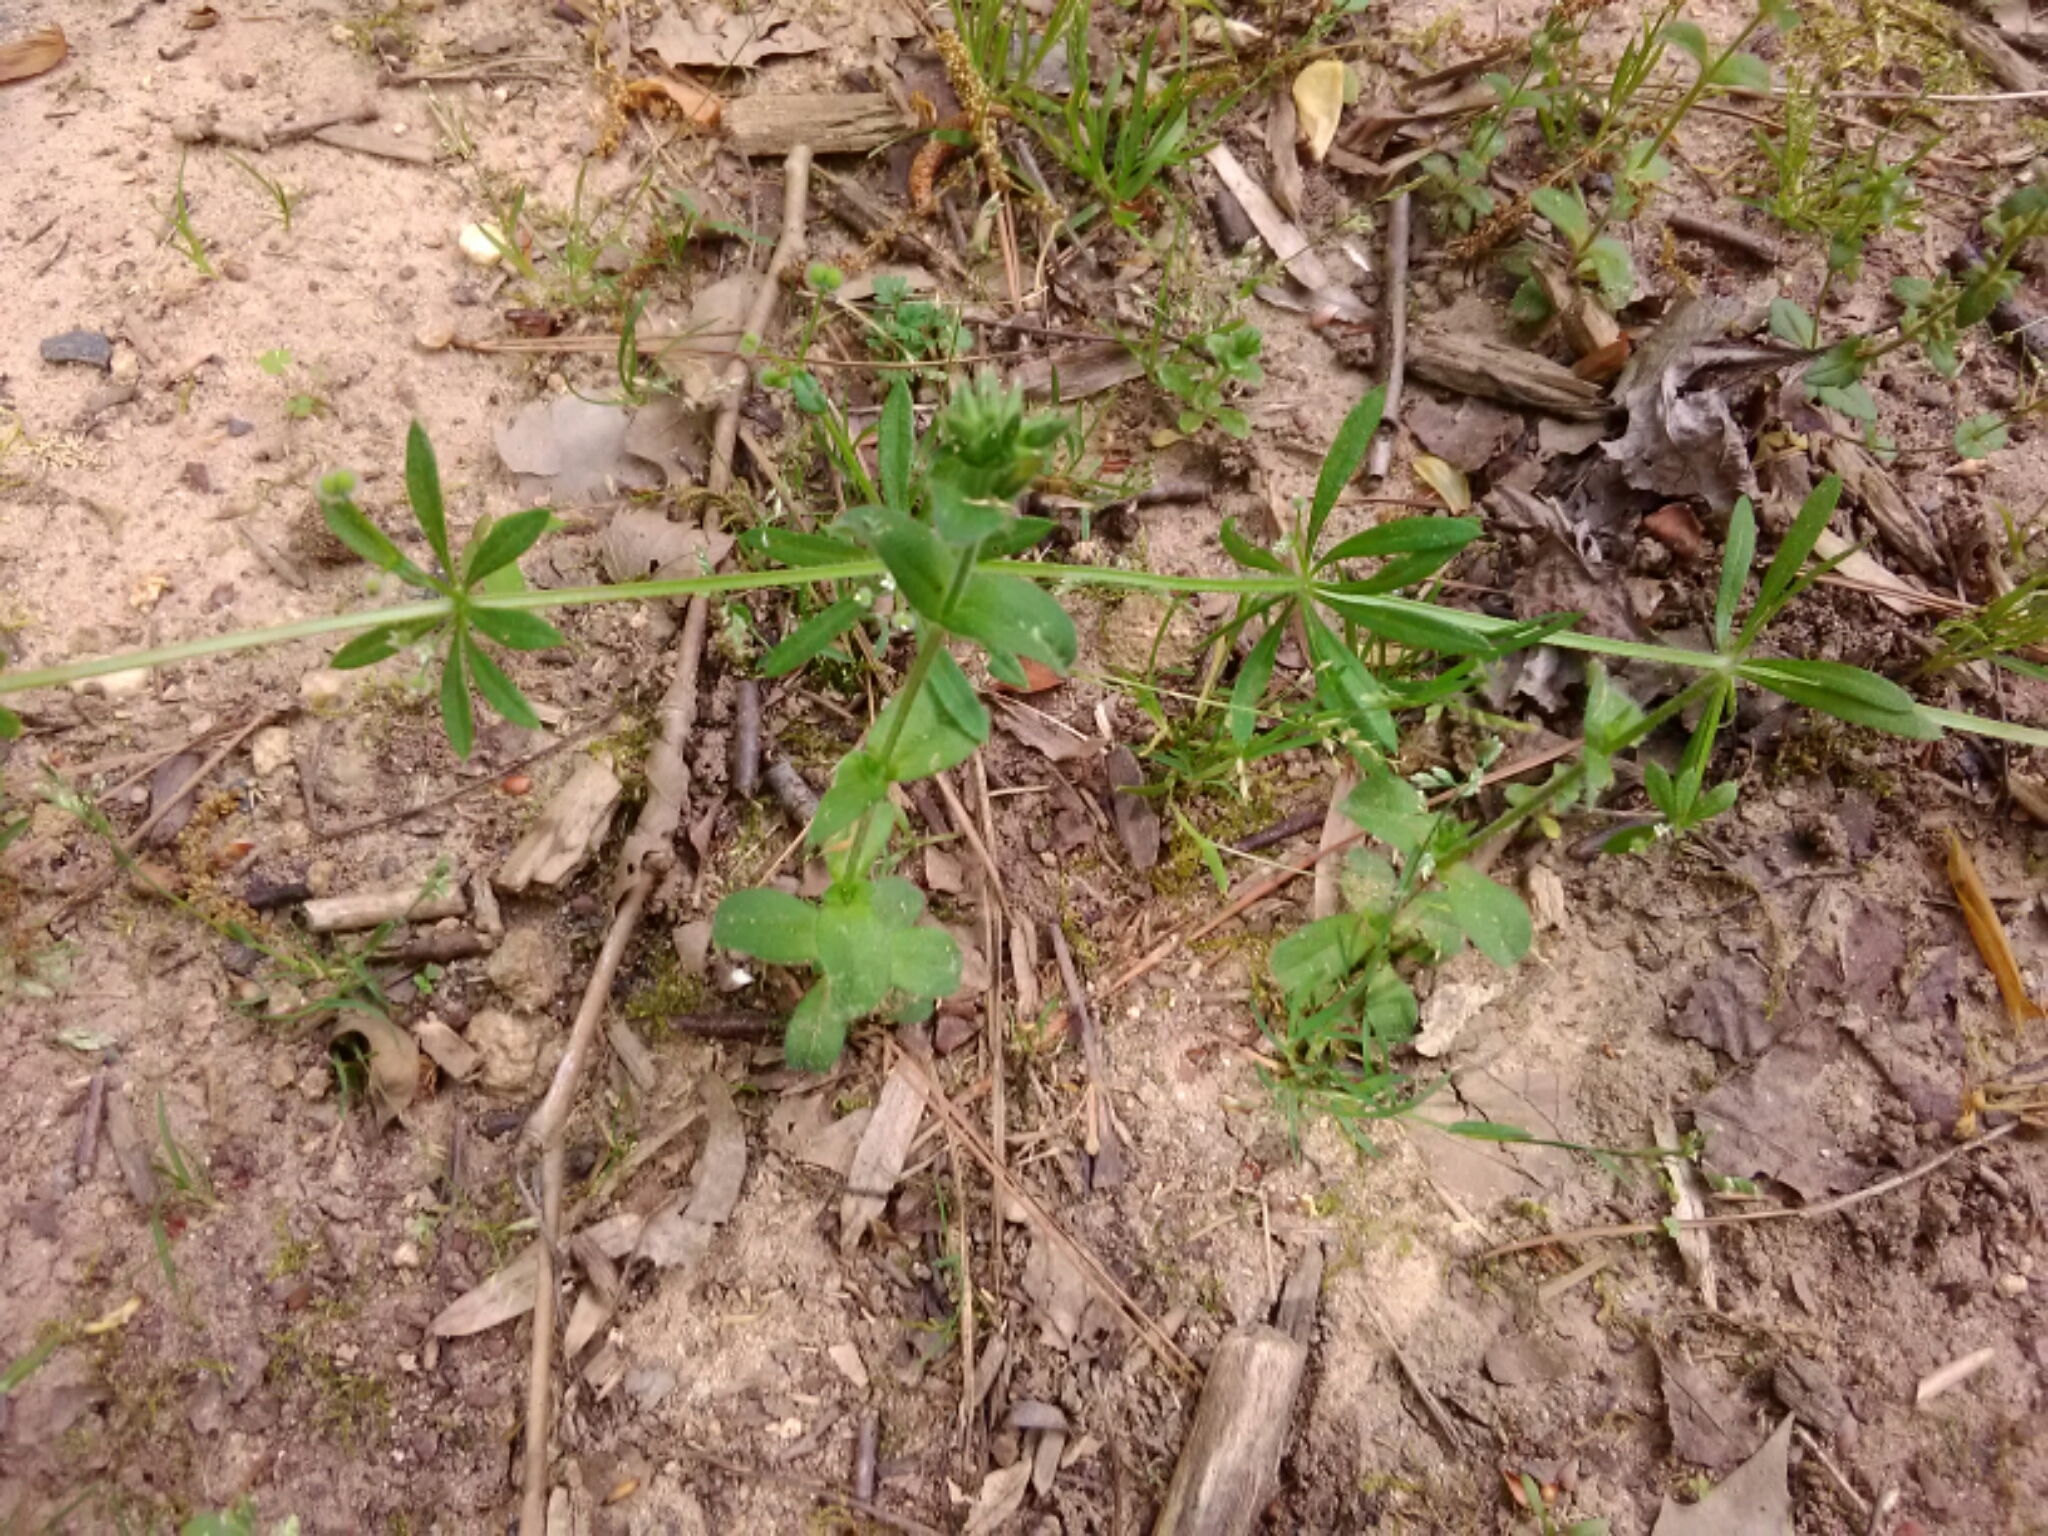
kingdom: Plantae
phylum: Tracheophyta
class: Magnoliopsida
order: Gentianales
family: Rubiaceae
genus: Galium
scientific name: Galium aparine
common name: Cleavers
